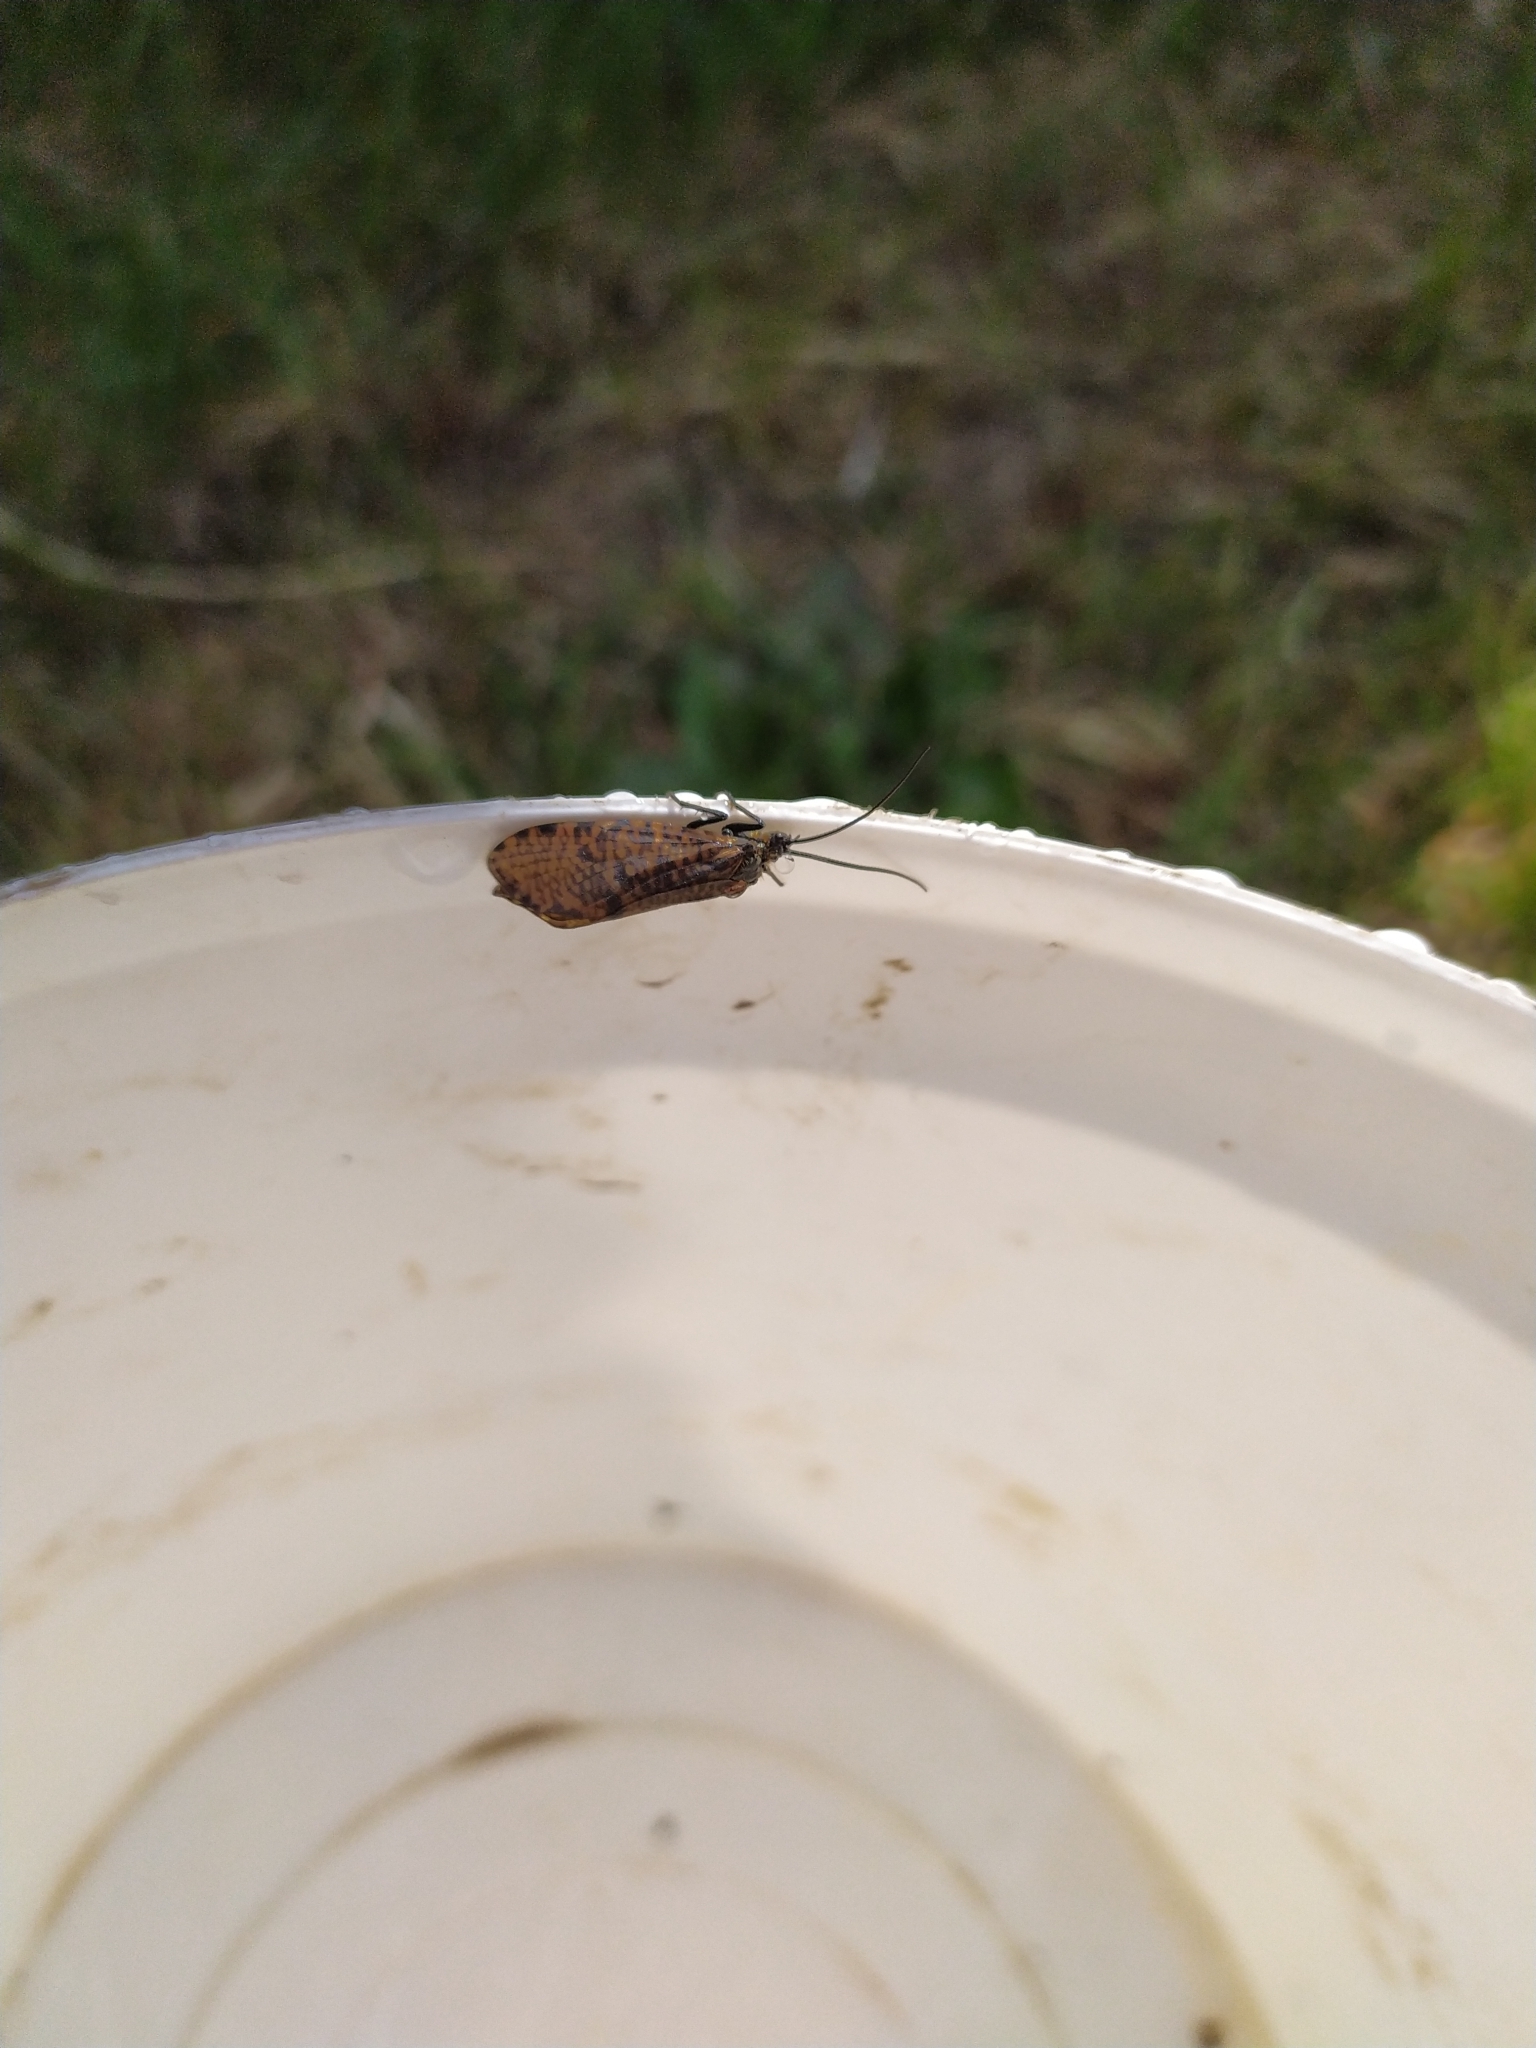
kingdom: Animalia
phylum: Arthropoda
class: Insecta
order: Trichoptera
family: Phryganeidae
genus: Oligostomis
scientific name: Oligostomis reticulata
